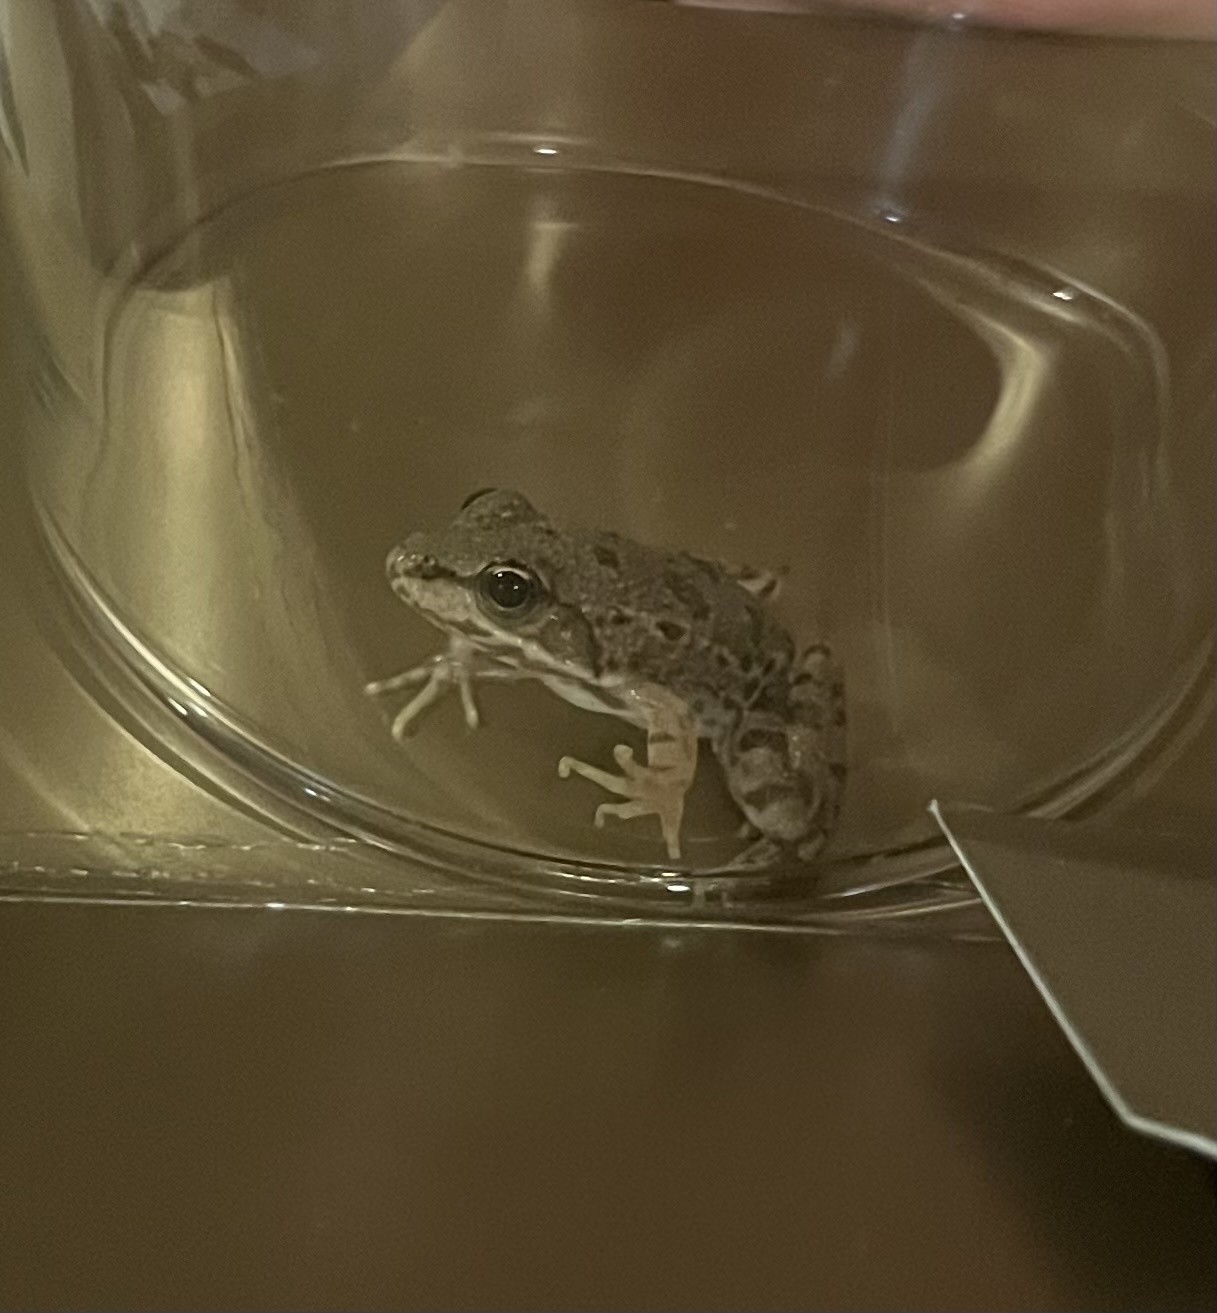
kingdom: Animalia
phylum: Chordata
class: Amphibia
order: Anura
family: Ranidae
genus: Pelophylax
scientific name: Pelophylax ridibundus
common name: Marsh frog
